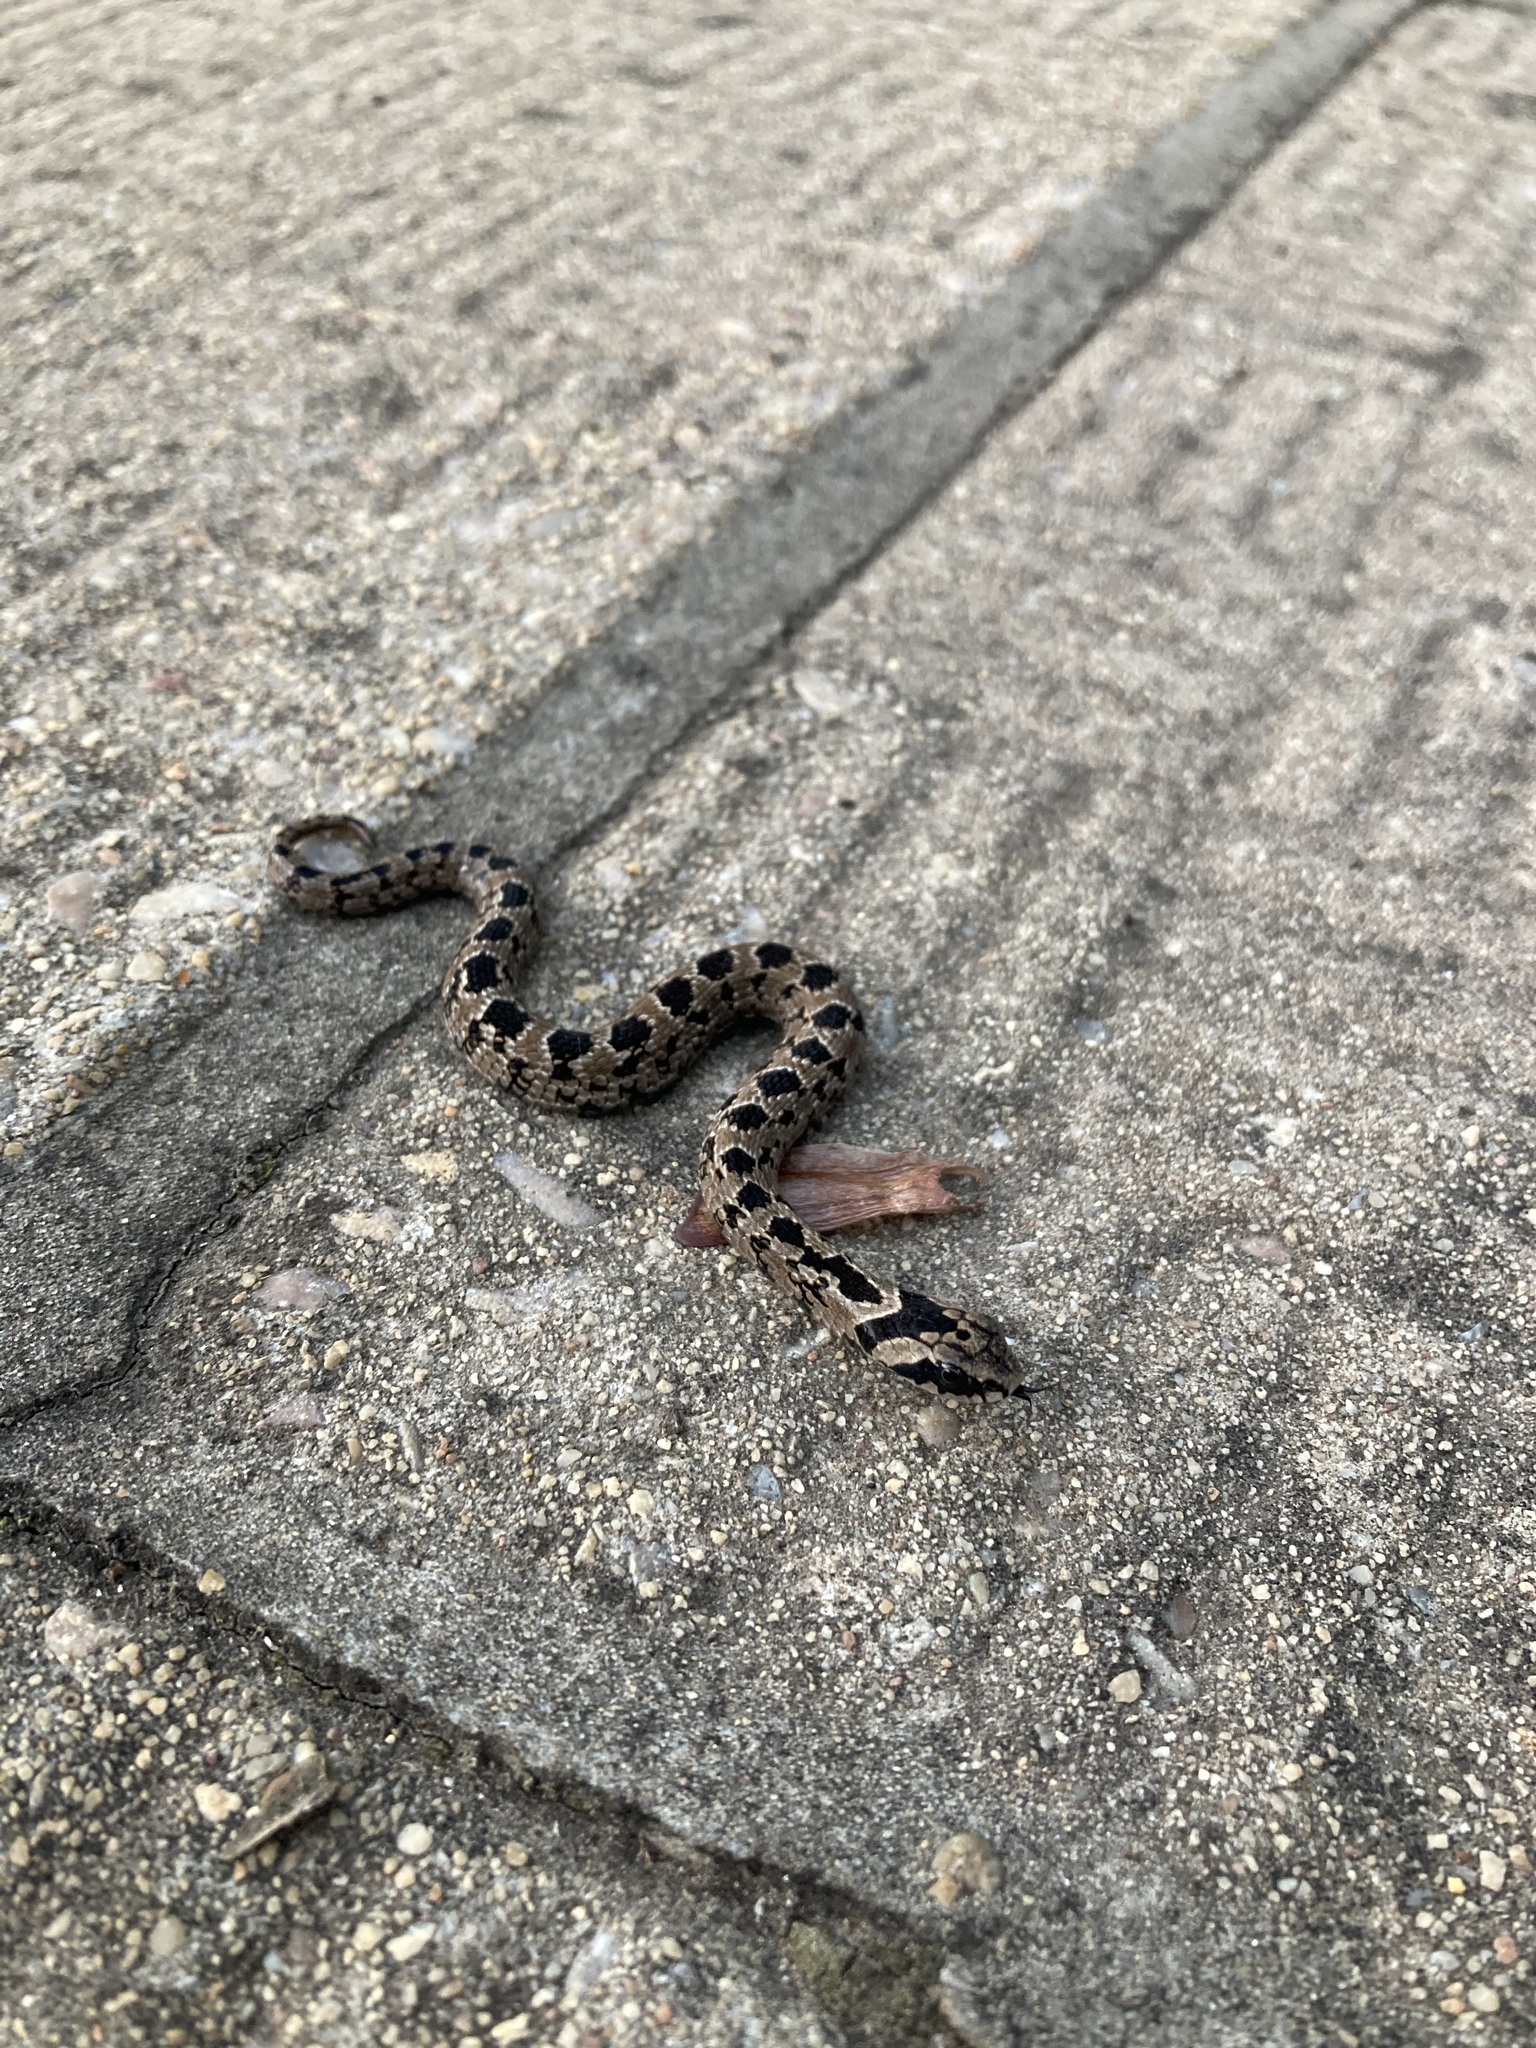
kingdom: Animalia
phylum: Chordata
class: Squamata
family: Viperidae
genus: Causus
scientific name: Causus rhombeatus
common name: Common night adder
